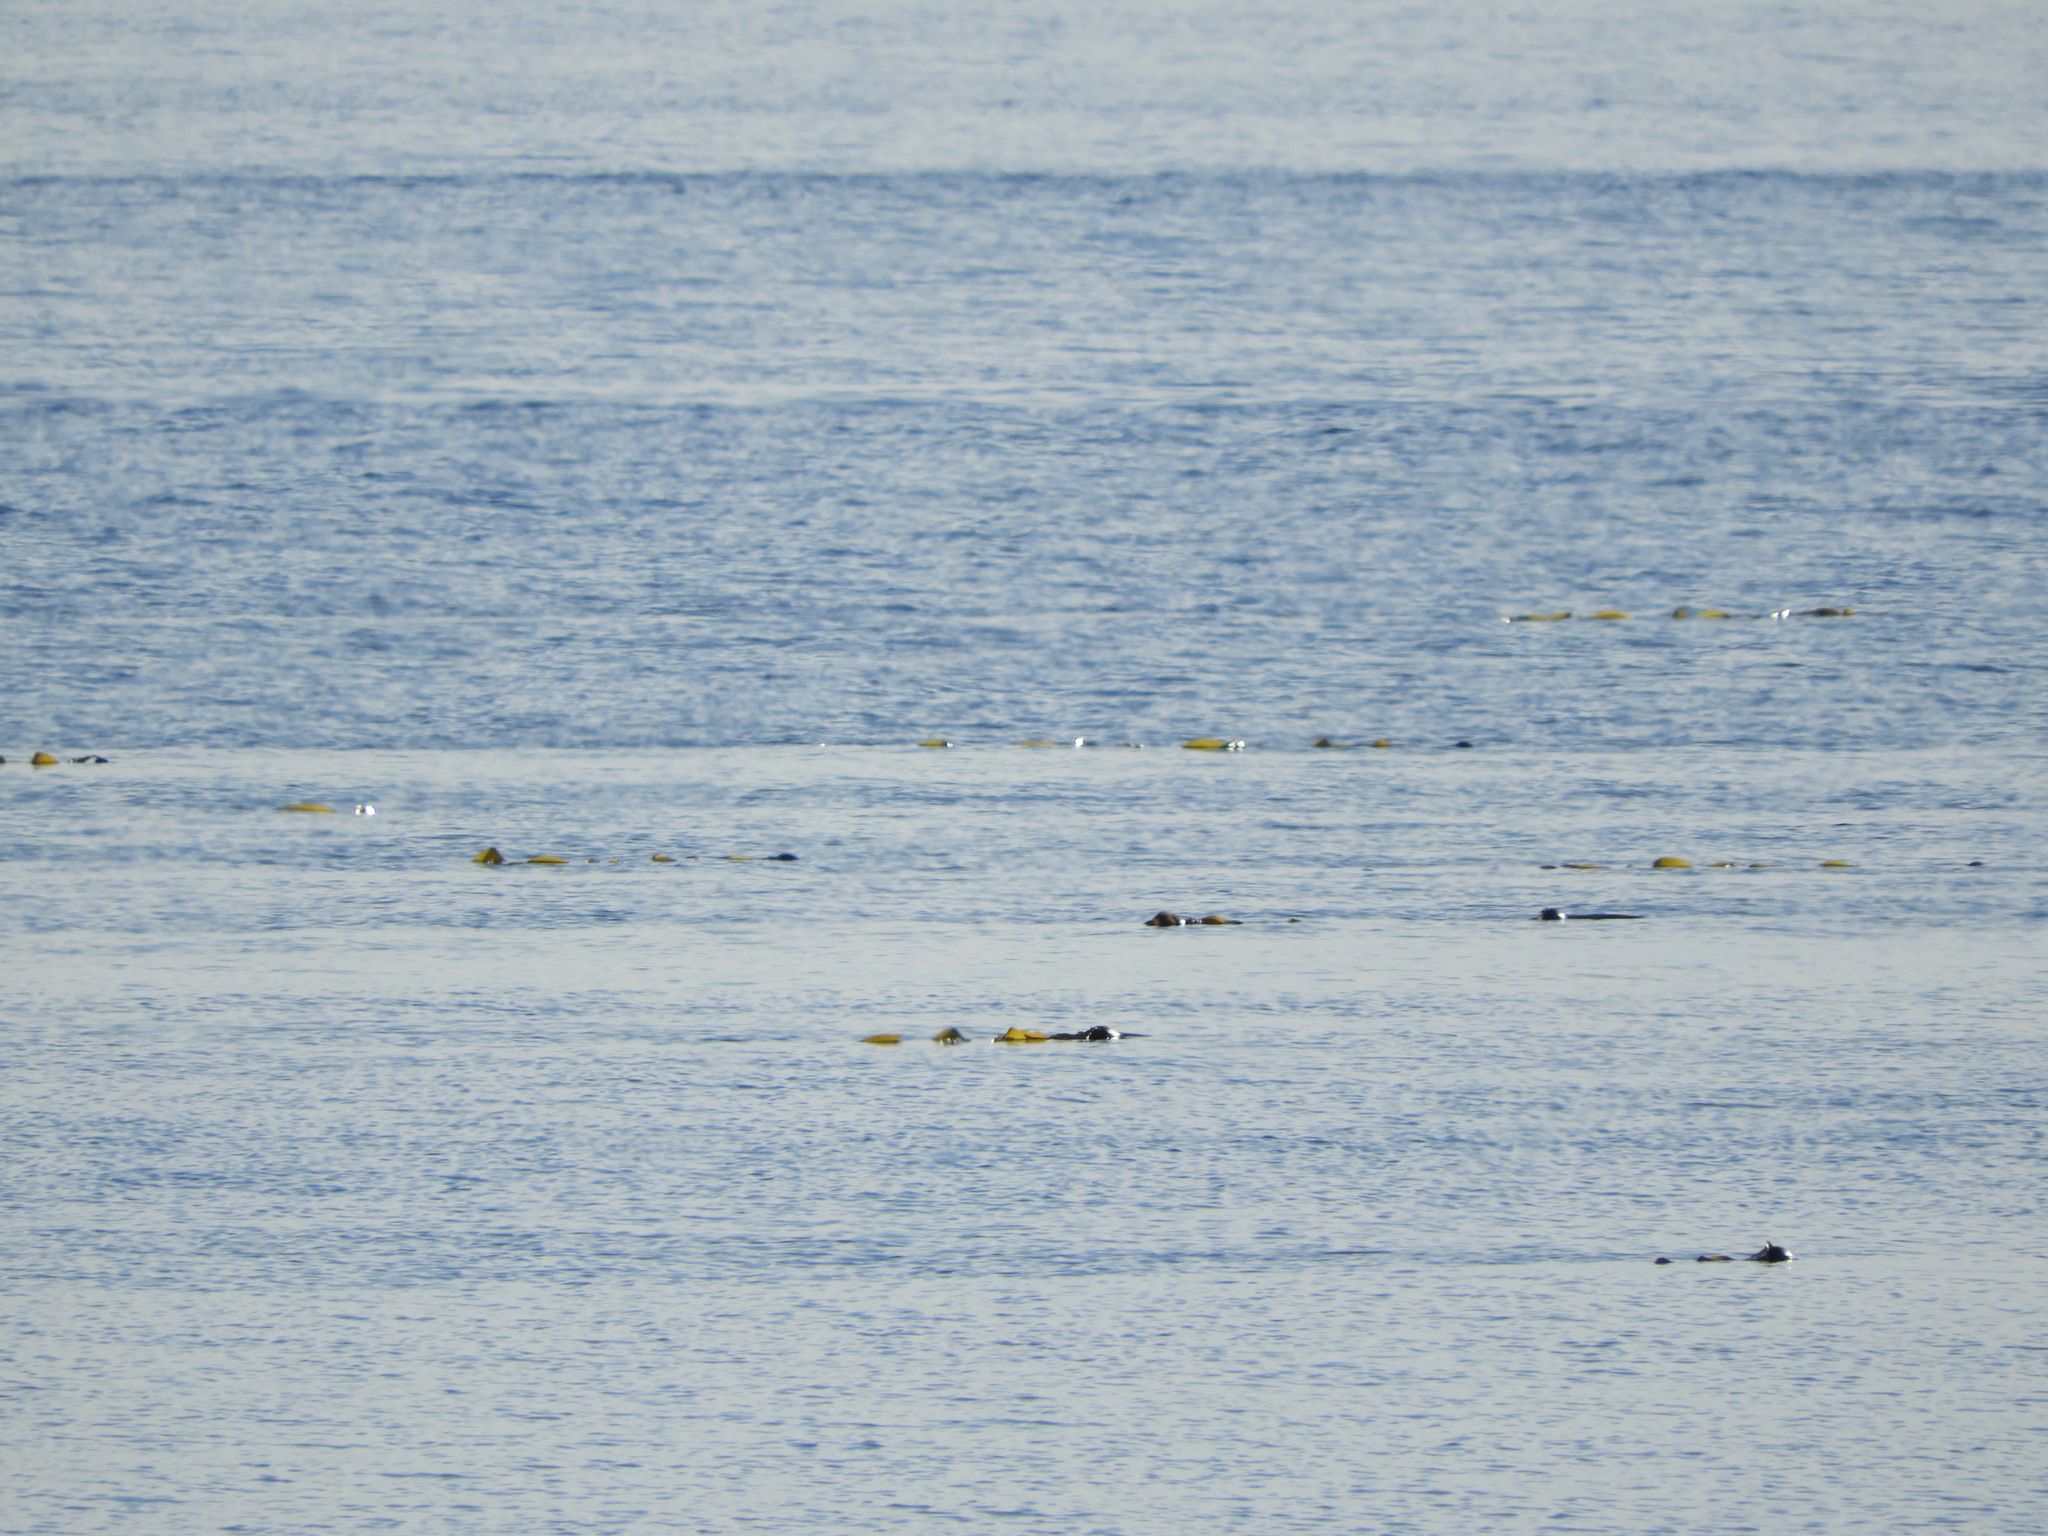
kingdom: Chromista
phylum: Ochrophyta
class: Phaeophyceae
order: Laminariales
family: Laminariaceae
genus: Nereocystis
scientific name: Nereocystis luetkeana
